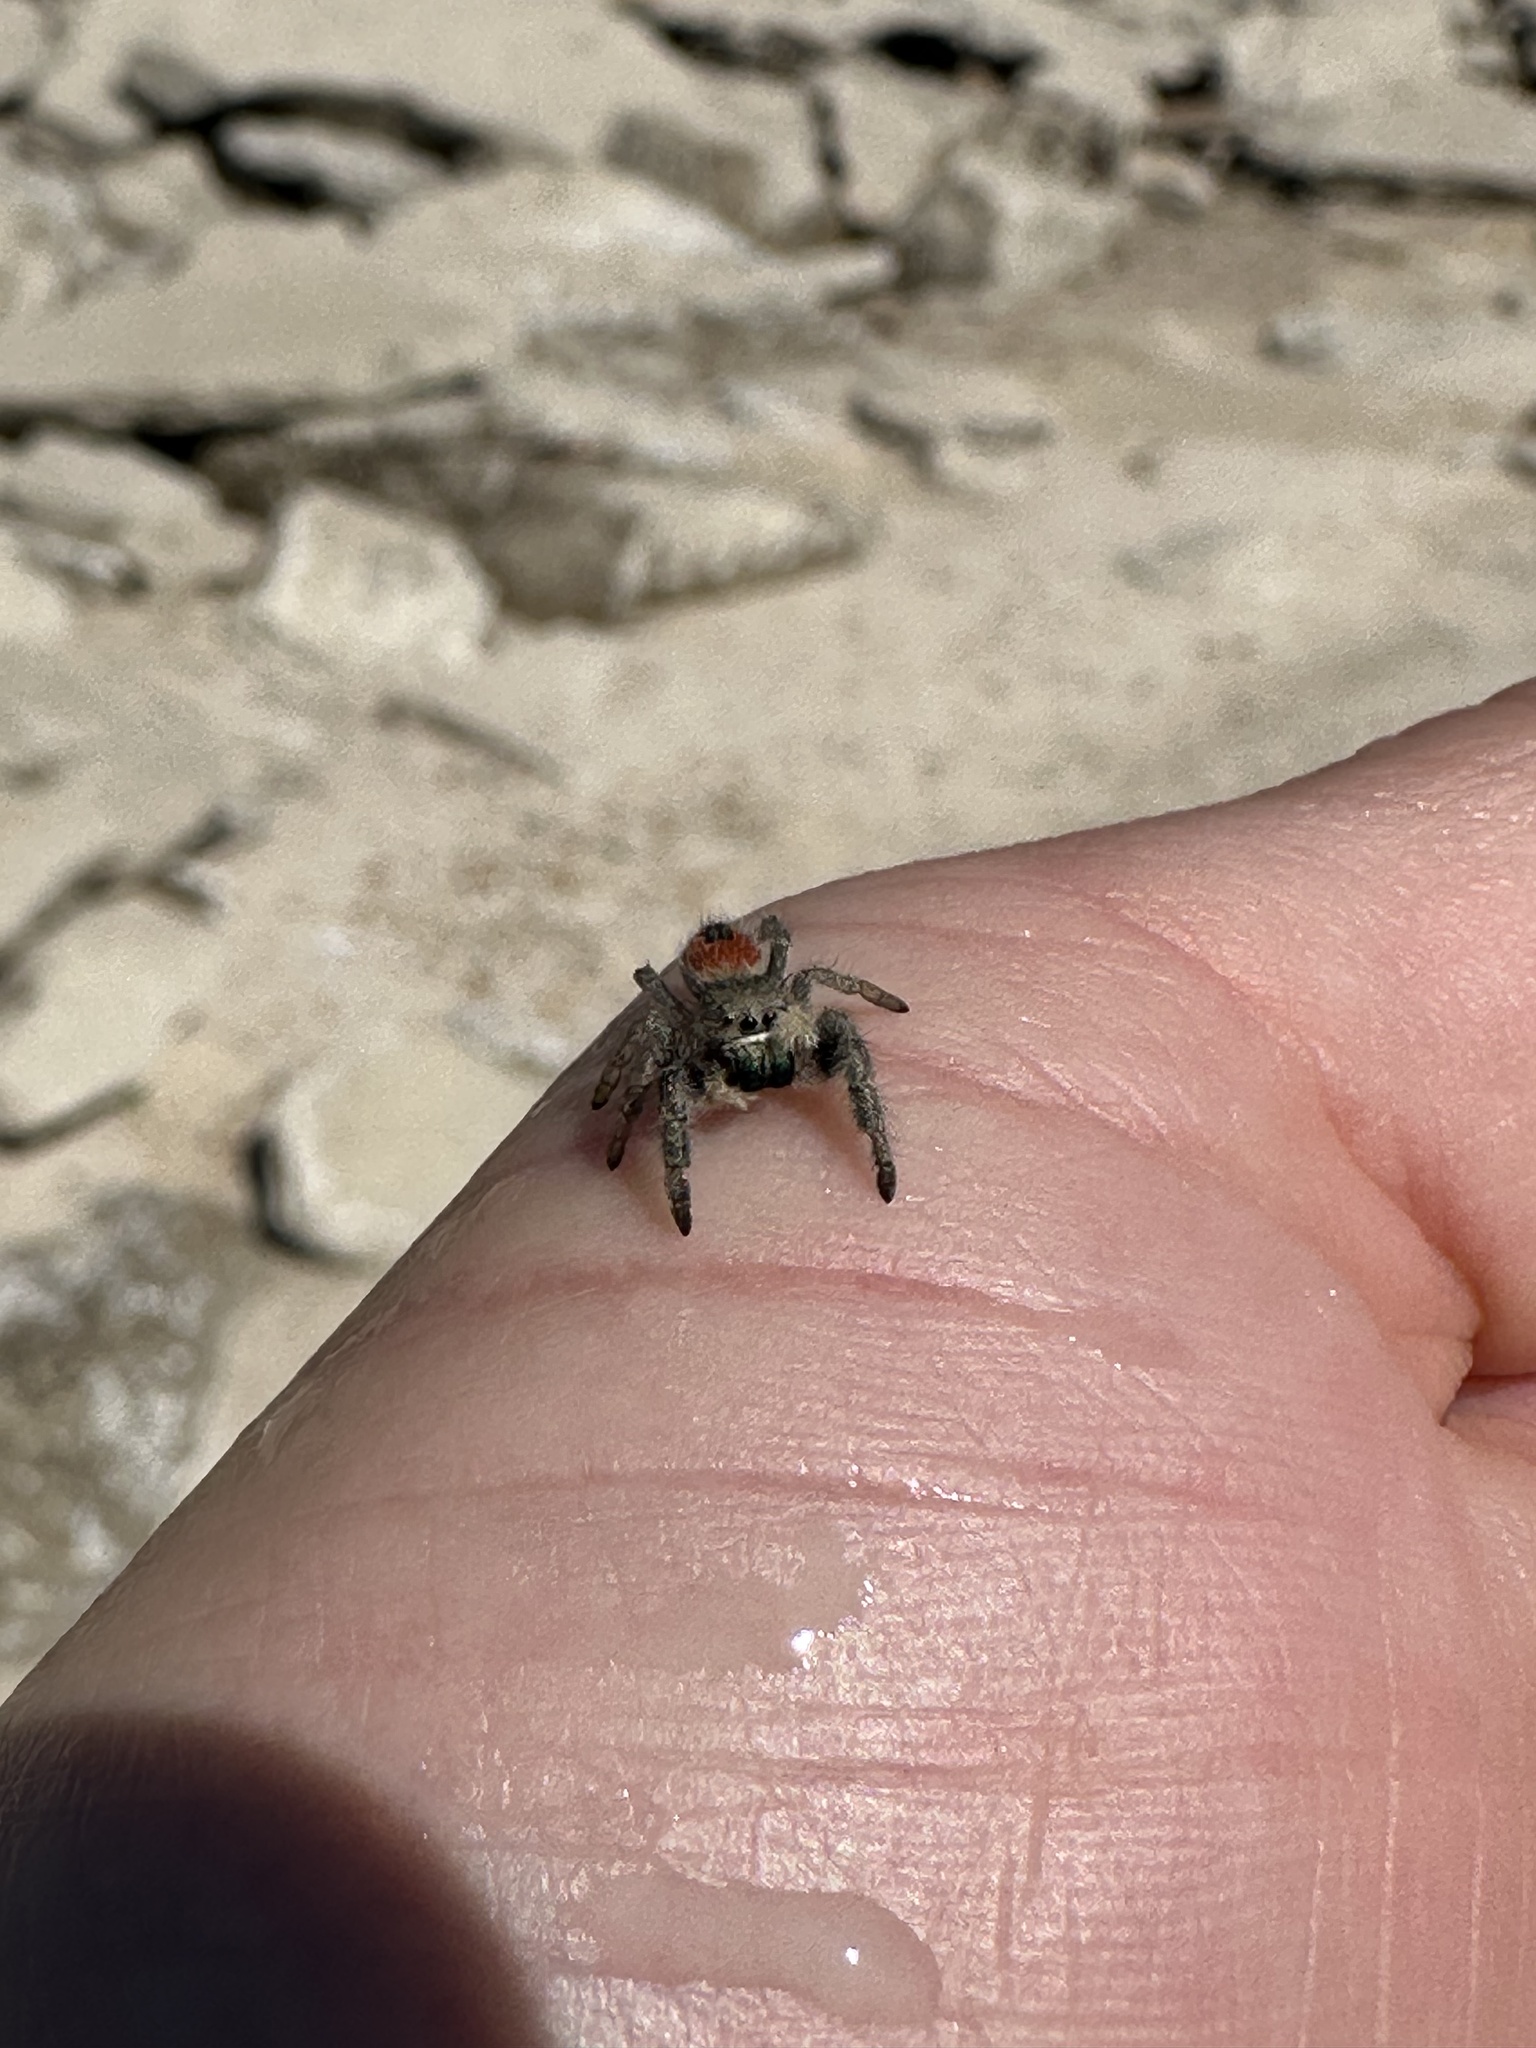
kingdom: Animalia
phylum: Arthropoda
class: Arachnida
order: Araneae
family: Salticidae
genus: Phidippus
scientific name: Phidippus ardens
